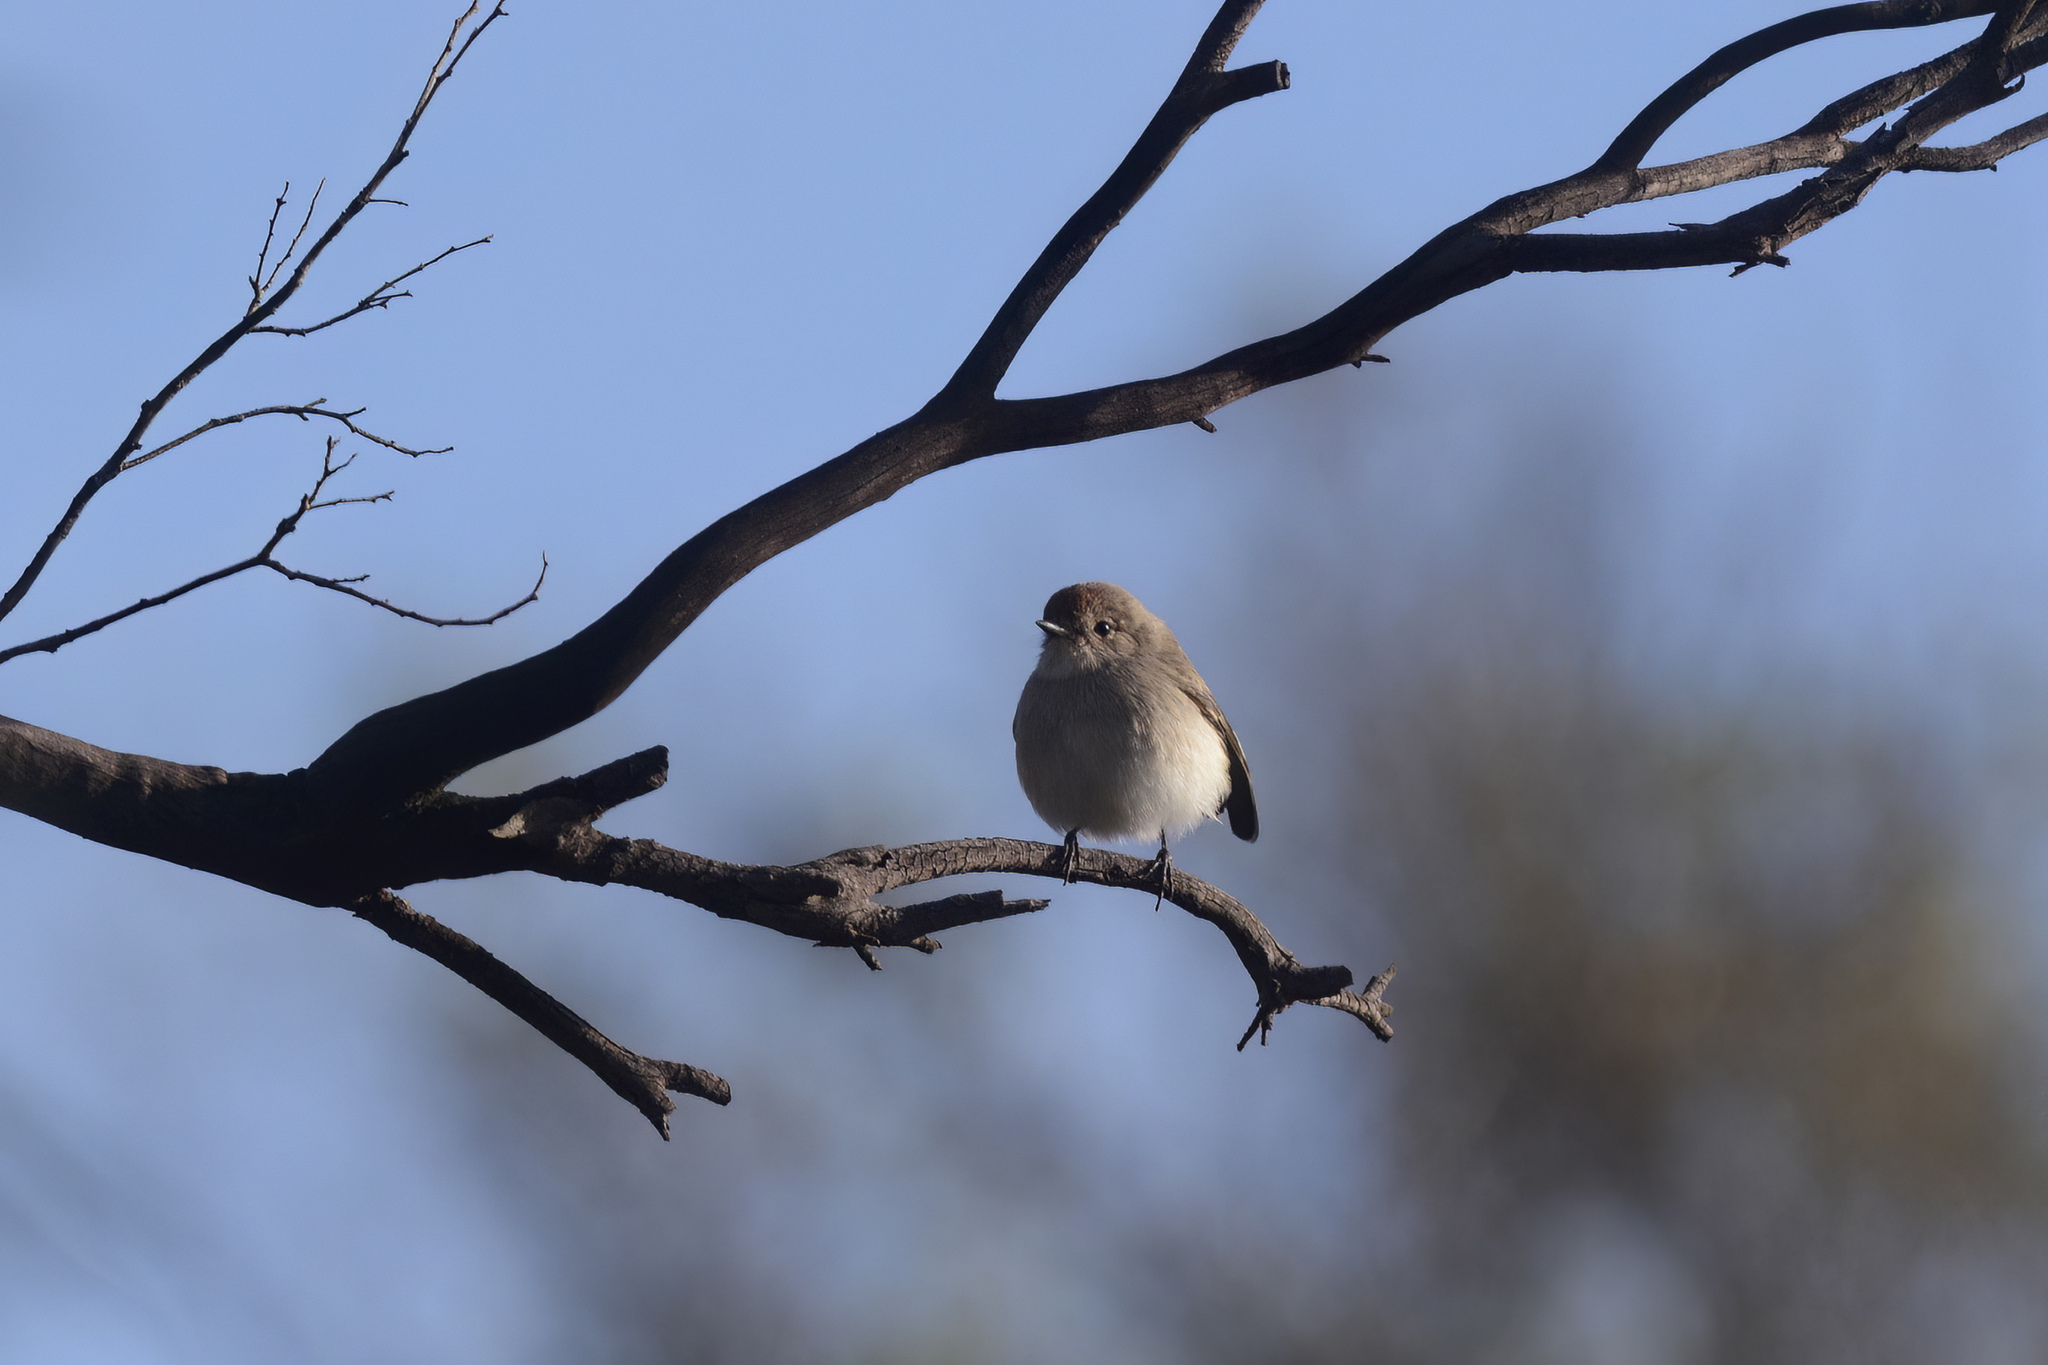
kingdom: Animalia
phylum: Chordata
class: Aves
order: Passeriformes
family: Petroicidae
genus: Petroica
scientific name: Petroica goodenovii
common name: Red-capped robin
